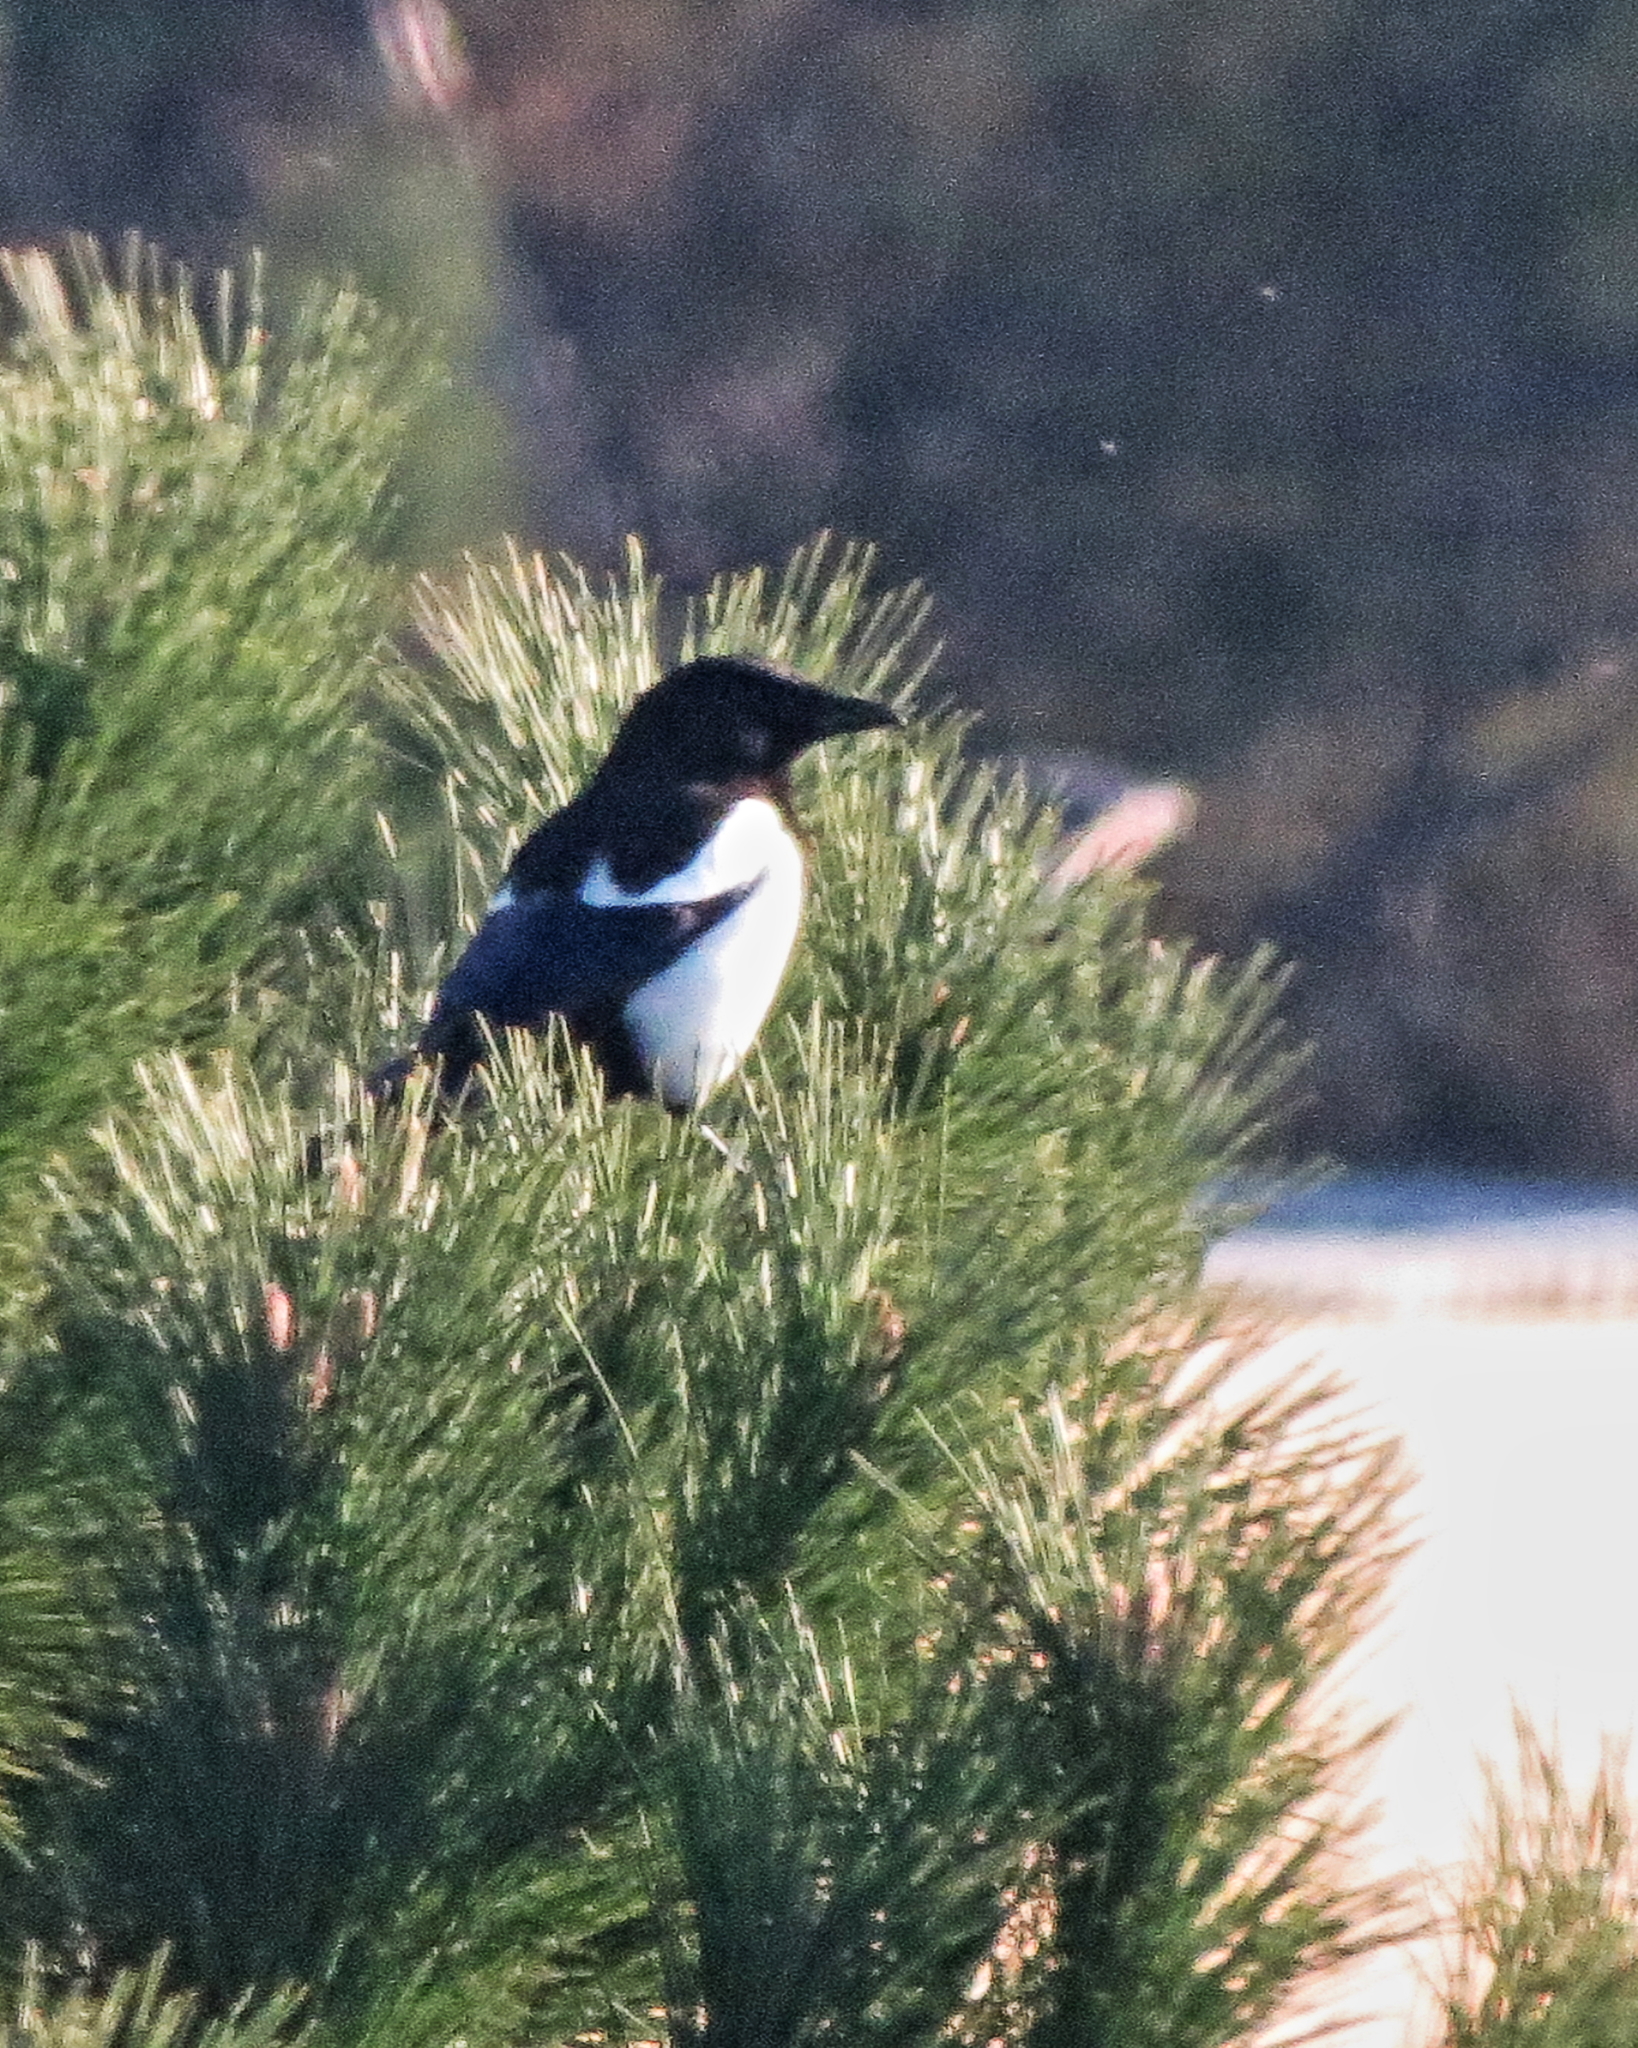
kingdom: Animalia
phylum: Chordata
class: Aves
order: Passeriformes
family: Corvidae
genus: Pica
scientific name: Pica pica
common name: Eurasian magpie
